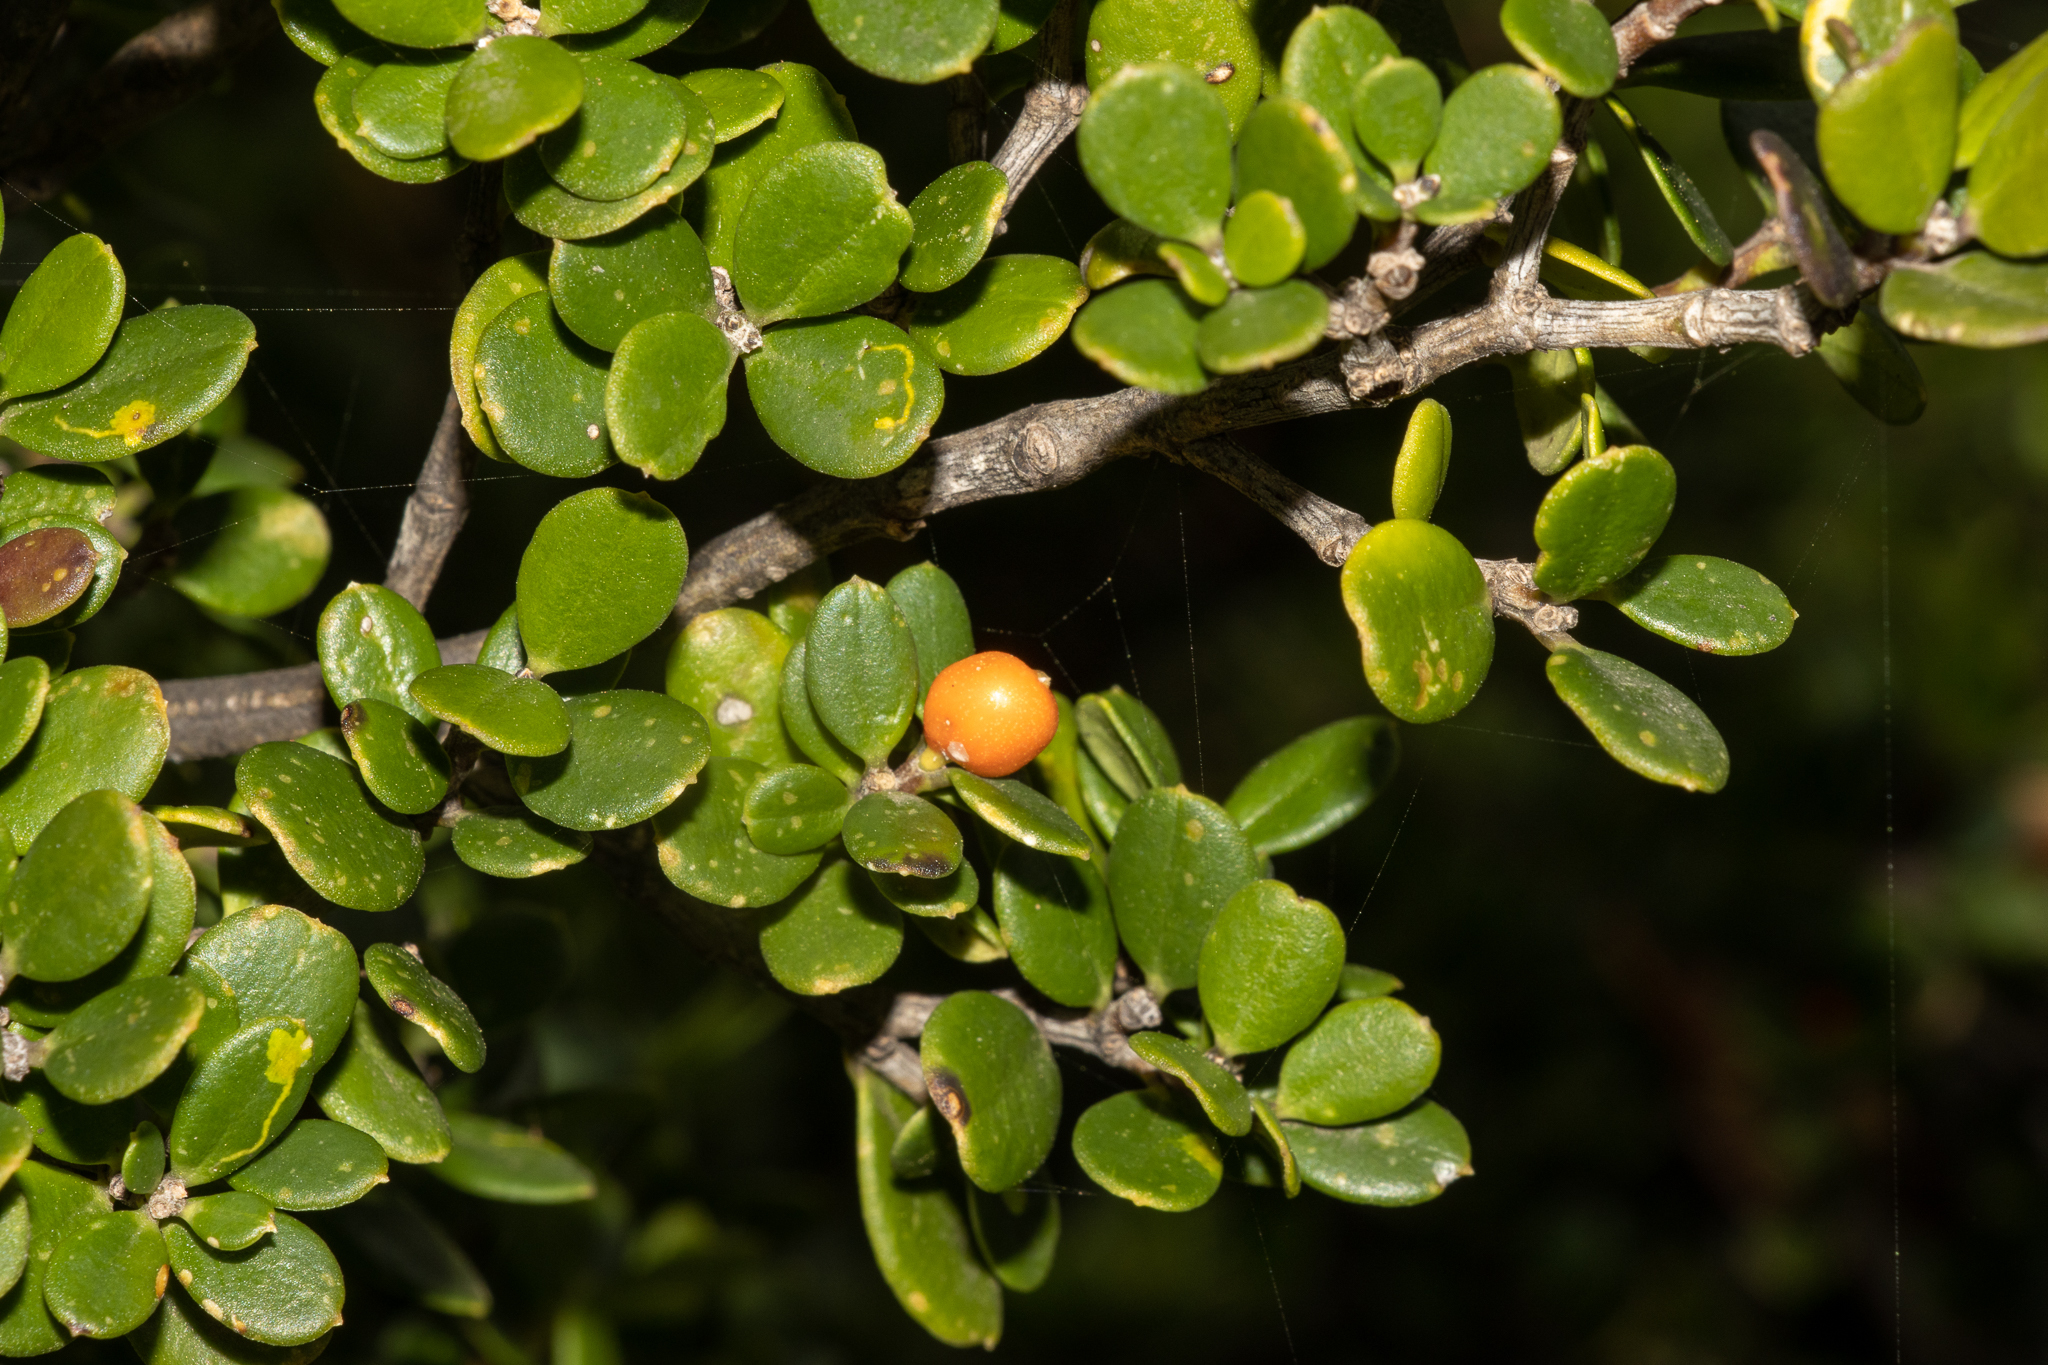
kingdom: Plantae
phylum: Tracheophyta
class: Magnoliopsida
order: Gentianales
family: Apocynaceae
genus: Alyxia
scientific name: Alyxia buxifolia
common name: Dysentery-bush
